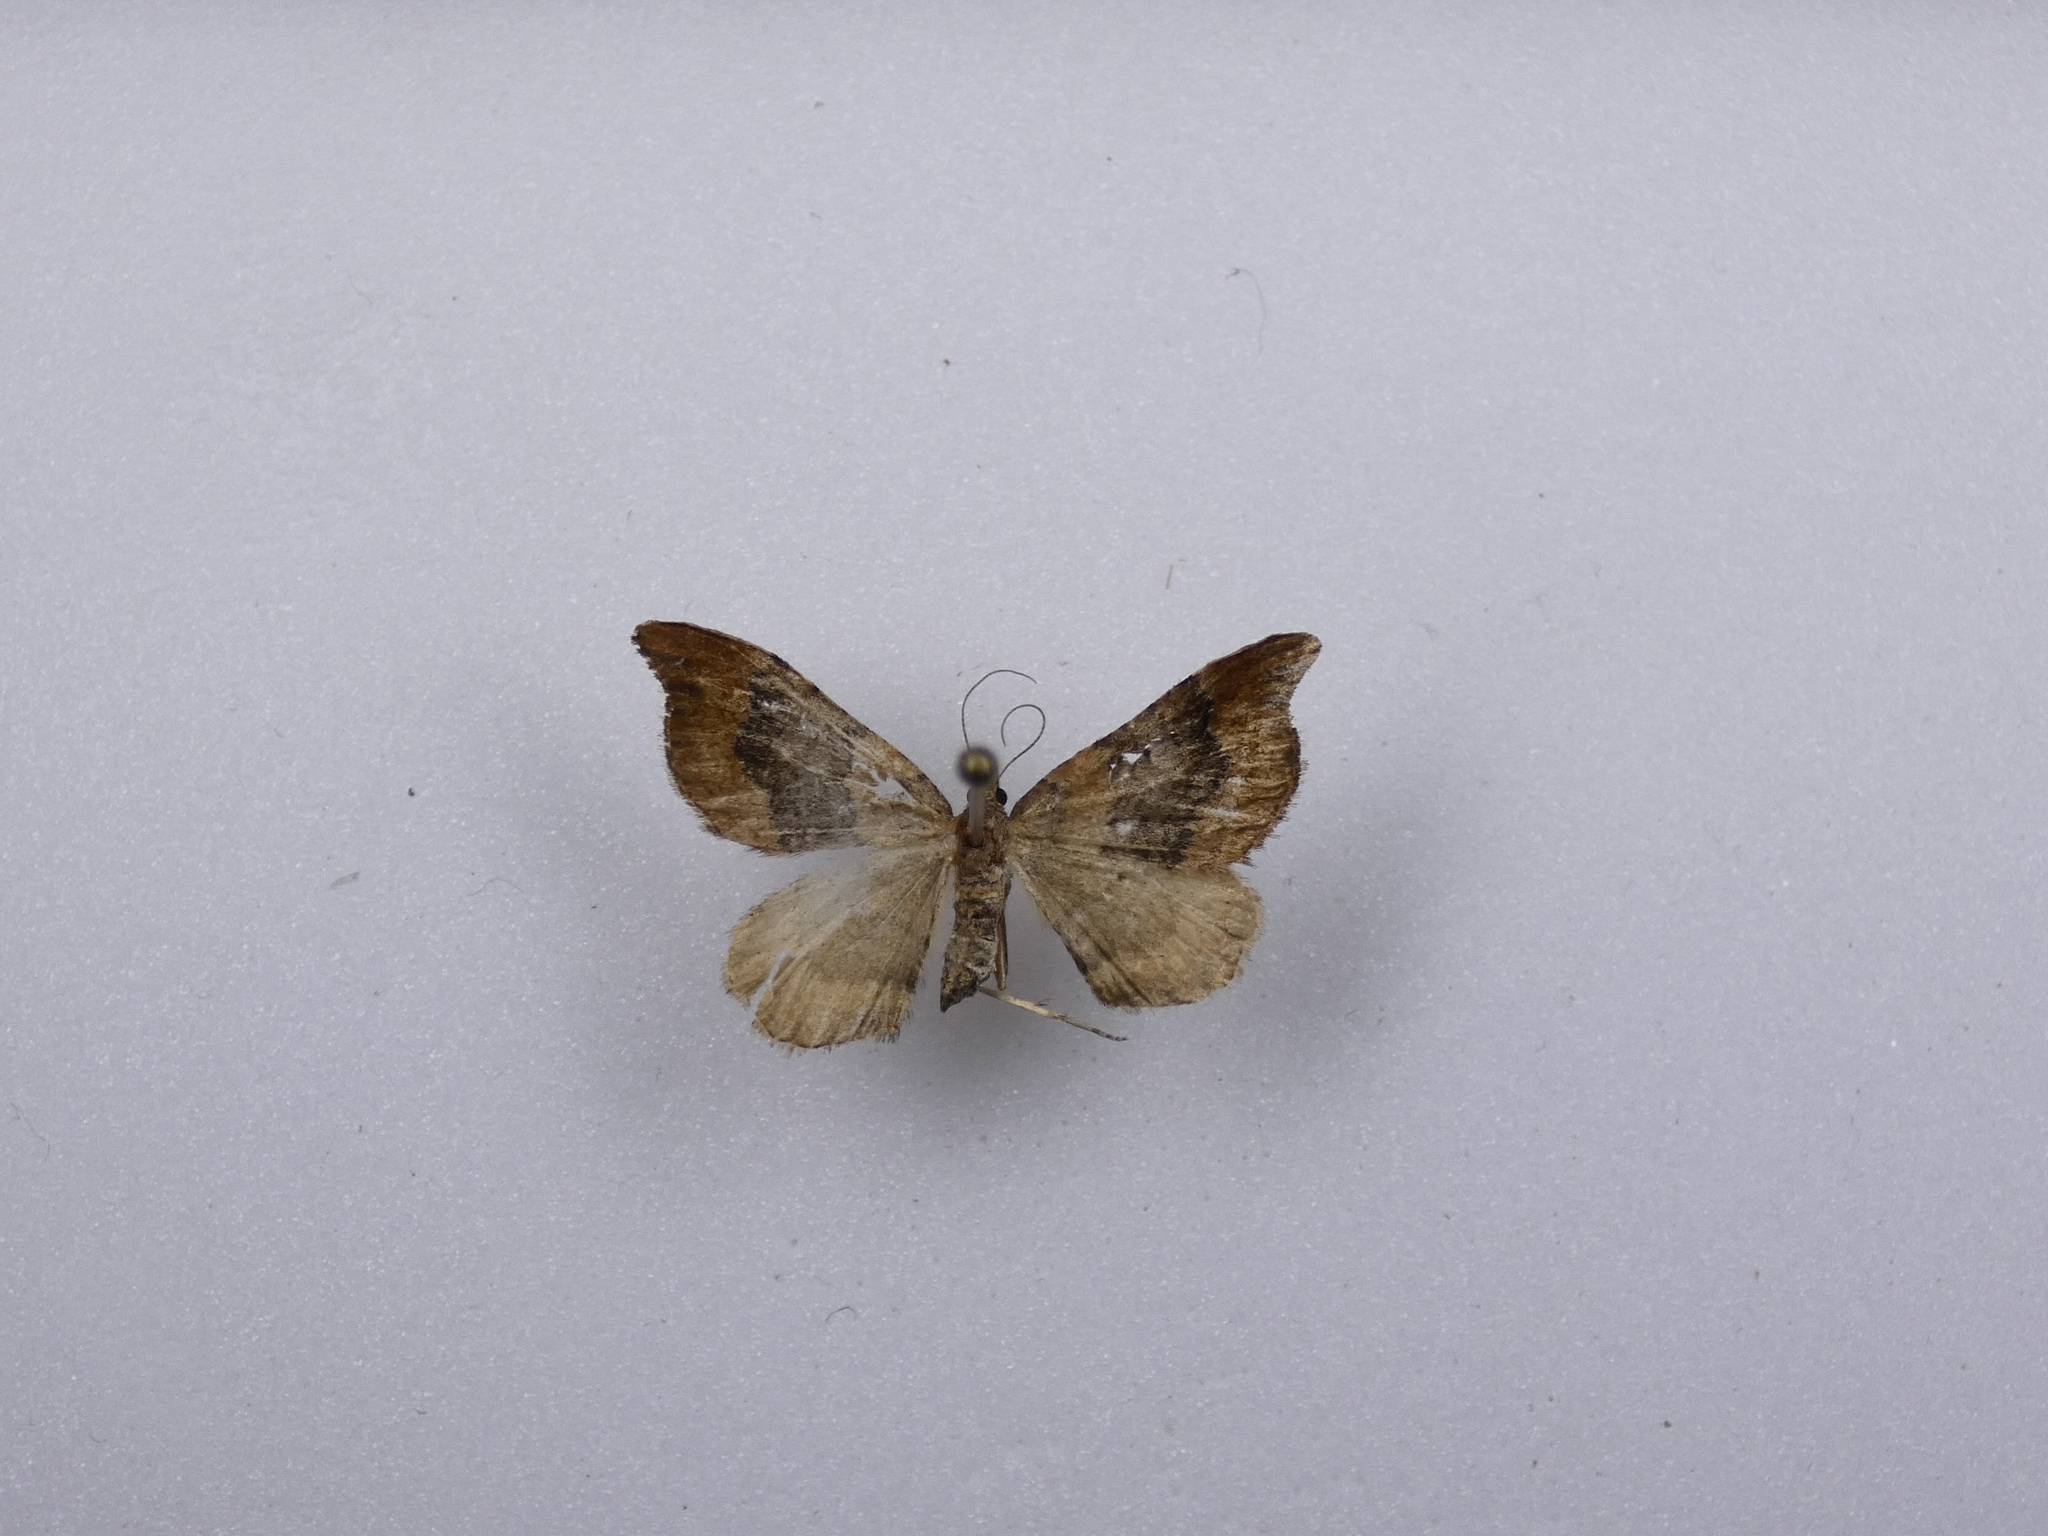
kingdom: Animalia
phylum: Arthropoda
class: Insecta
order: Lepidoptera
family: Geometridae
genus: Homodotis
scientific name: Homodotis megaspilata
